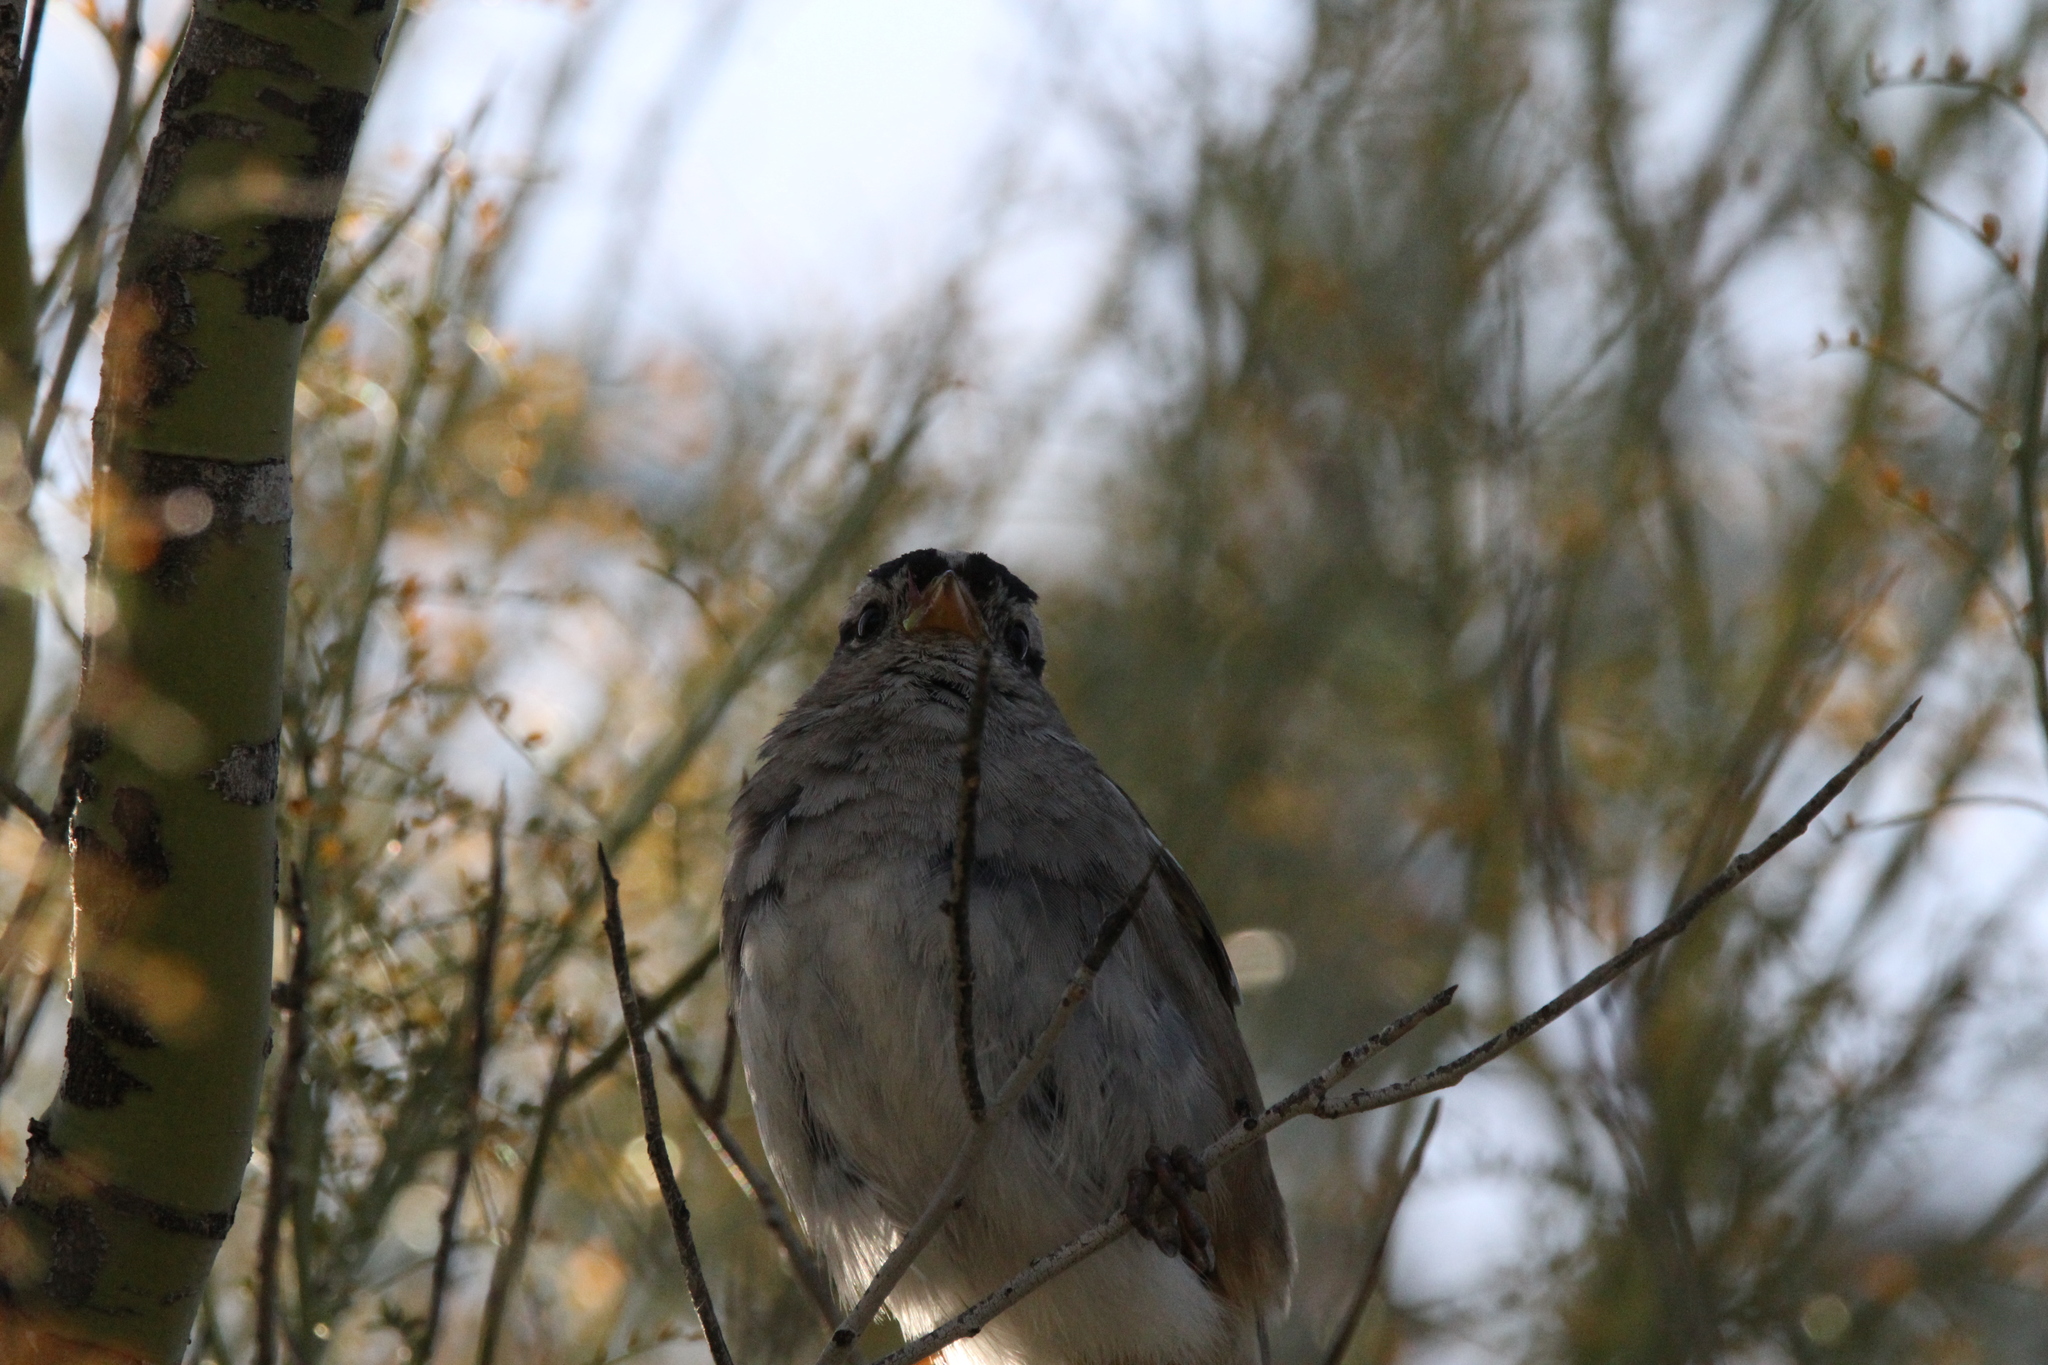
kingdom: Animalia
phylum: Chordata
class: Aves
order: Passeriformes
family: Passerellidae
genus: Zonotrichia
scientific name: Zonotrichia leucophrys
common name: White-crowned sparrow
